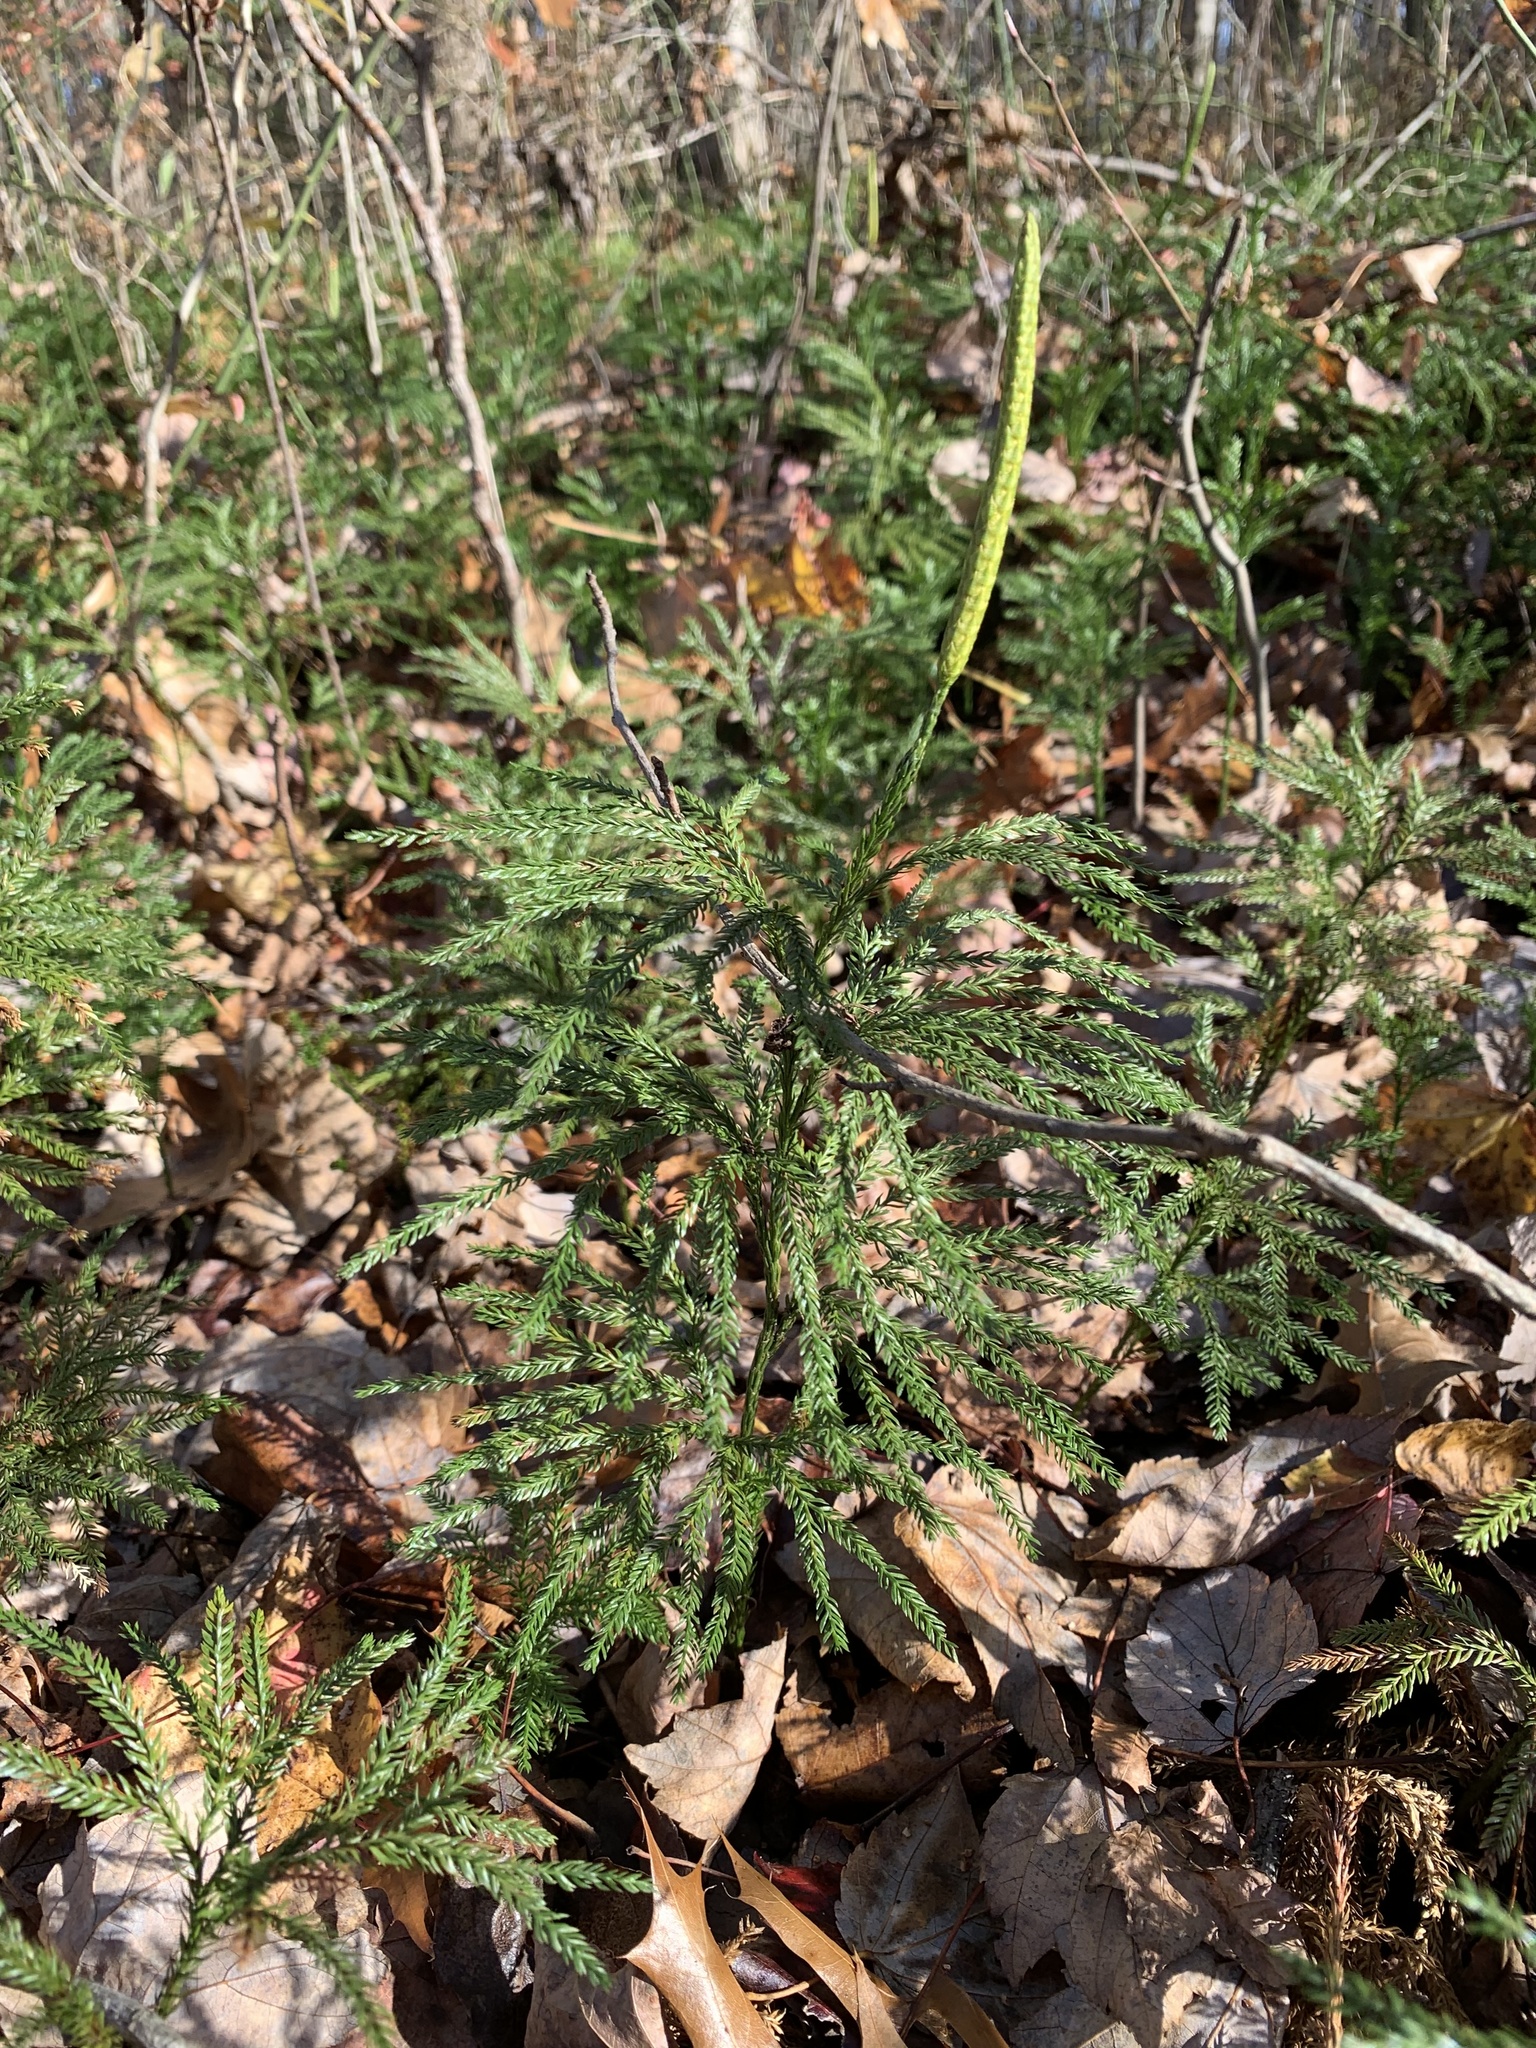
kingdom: Plantae
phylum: Tracheophyta
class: Lycopodiopsida
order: Lycopodiales
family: Lycopodiaceae
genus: Dendrolycopodium
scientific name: Dendrolycopodium obscurum
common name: Common ground-pine
